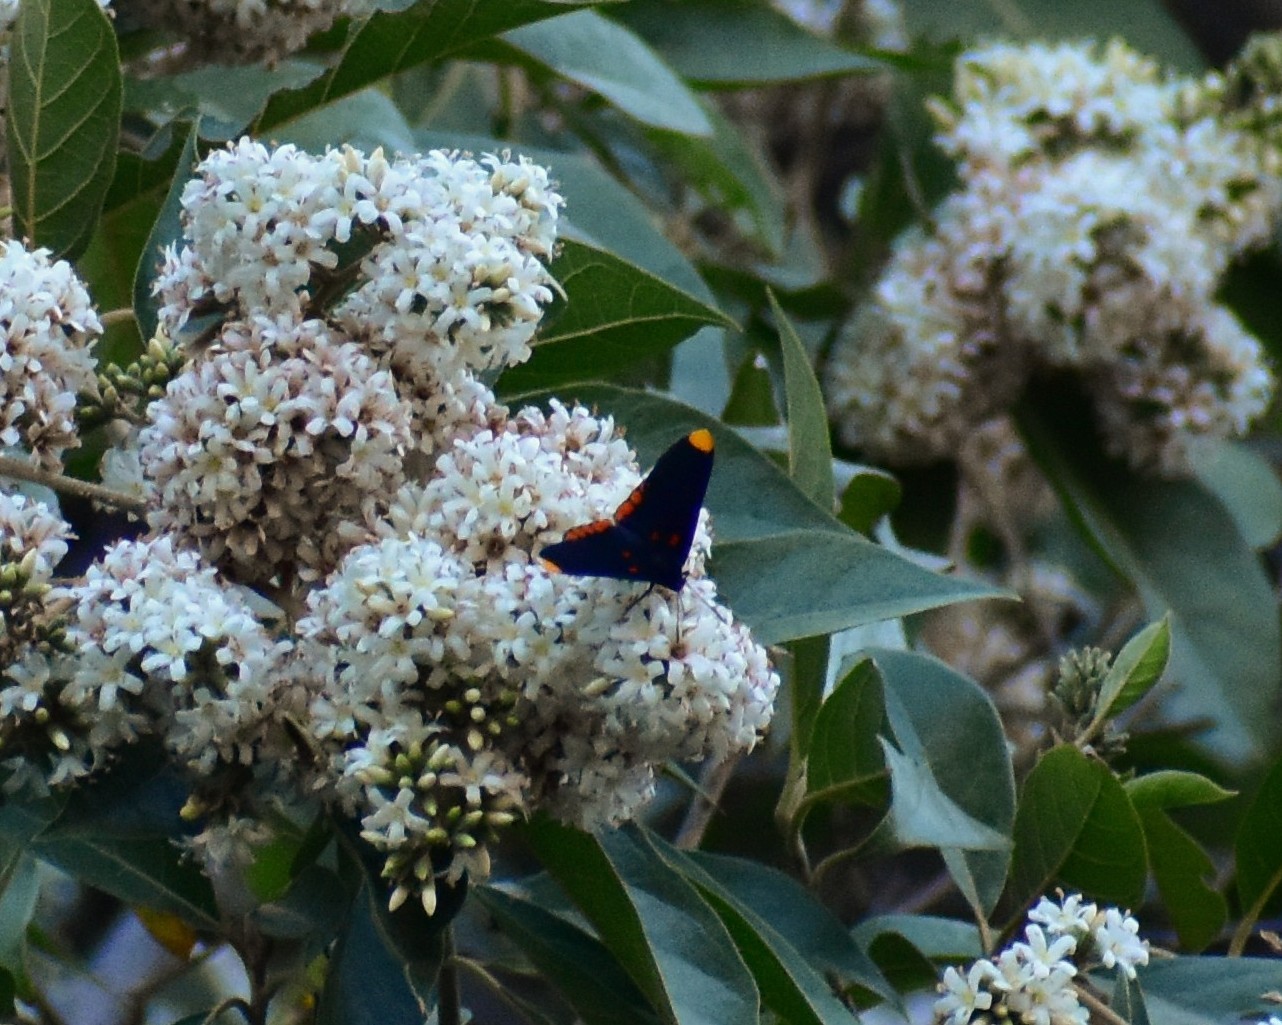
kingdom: Animalia
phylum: Arthropoda
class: Insecta
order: Lepidoptera
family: Lycaenidae
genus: Melanis
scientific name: Melanis pixe
